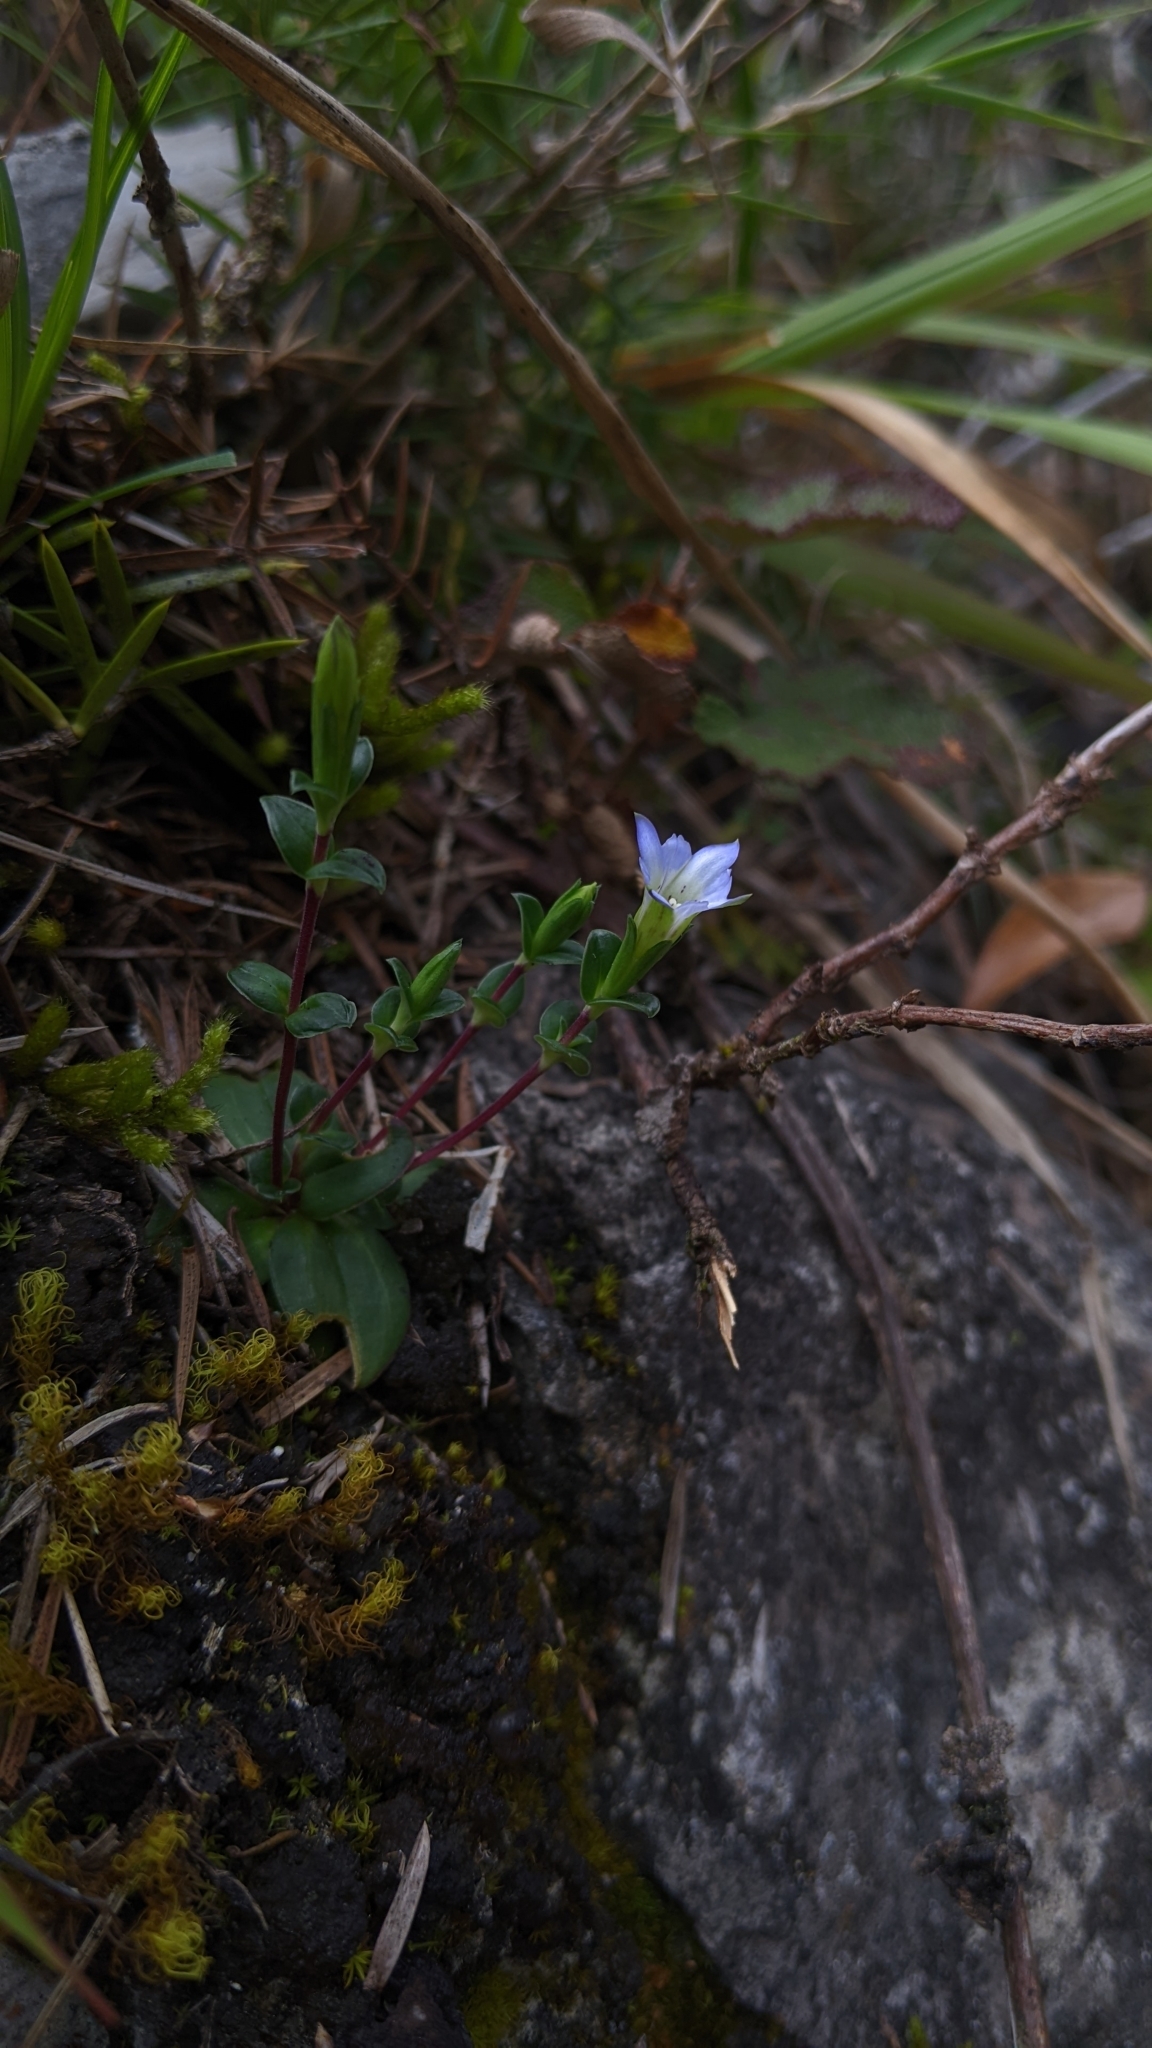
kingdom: Plantae
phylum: Tracheophyta
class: Magnoliopsida
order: Gentianales
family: Gentianaceae
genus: Gentiana
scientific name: Gentiana zollingeri
